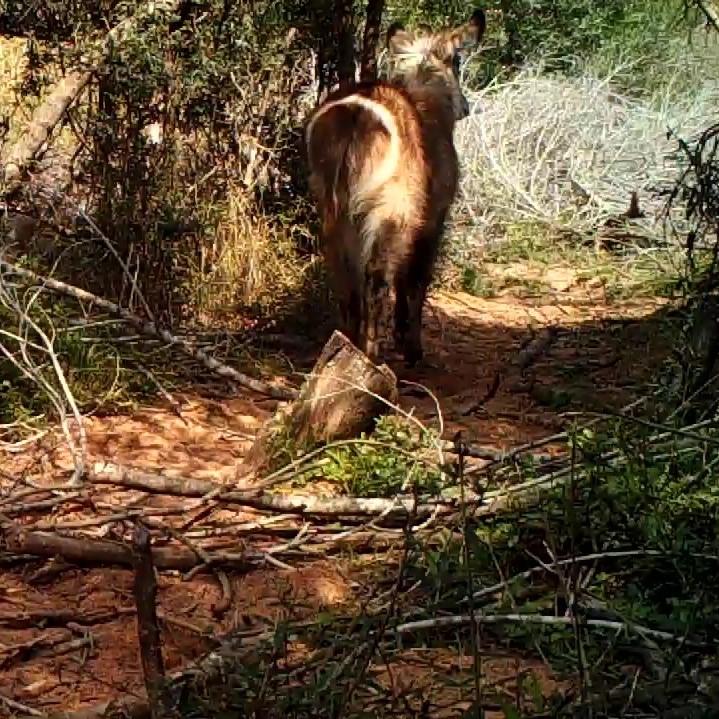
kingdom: Animalia
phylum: Chordata
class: Mammalia
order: Artiodactyla
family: Bovidae
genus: Kobus
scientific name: Kobus ellipsiprymnus
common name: Waterbuck
